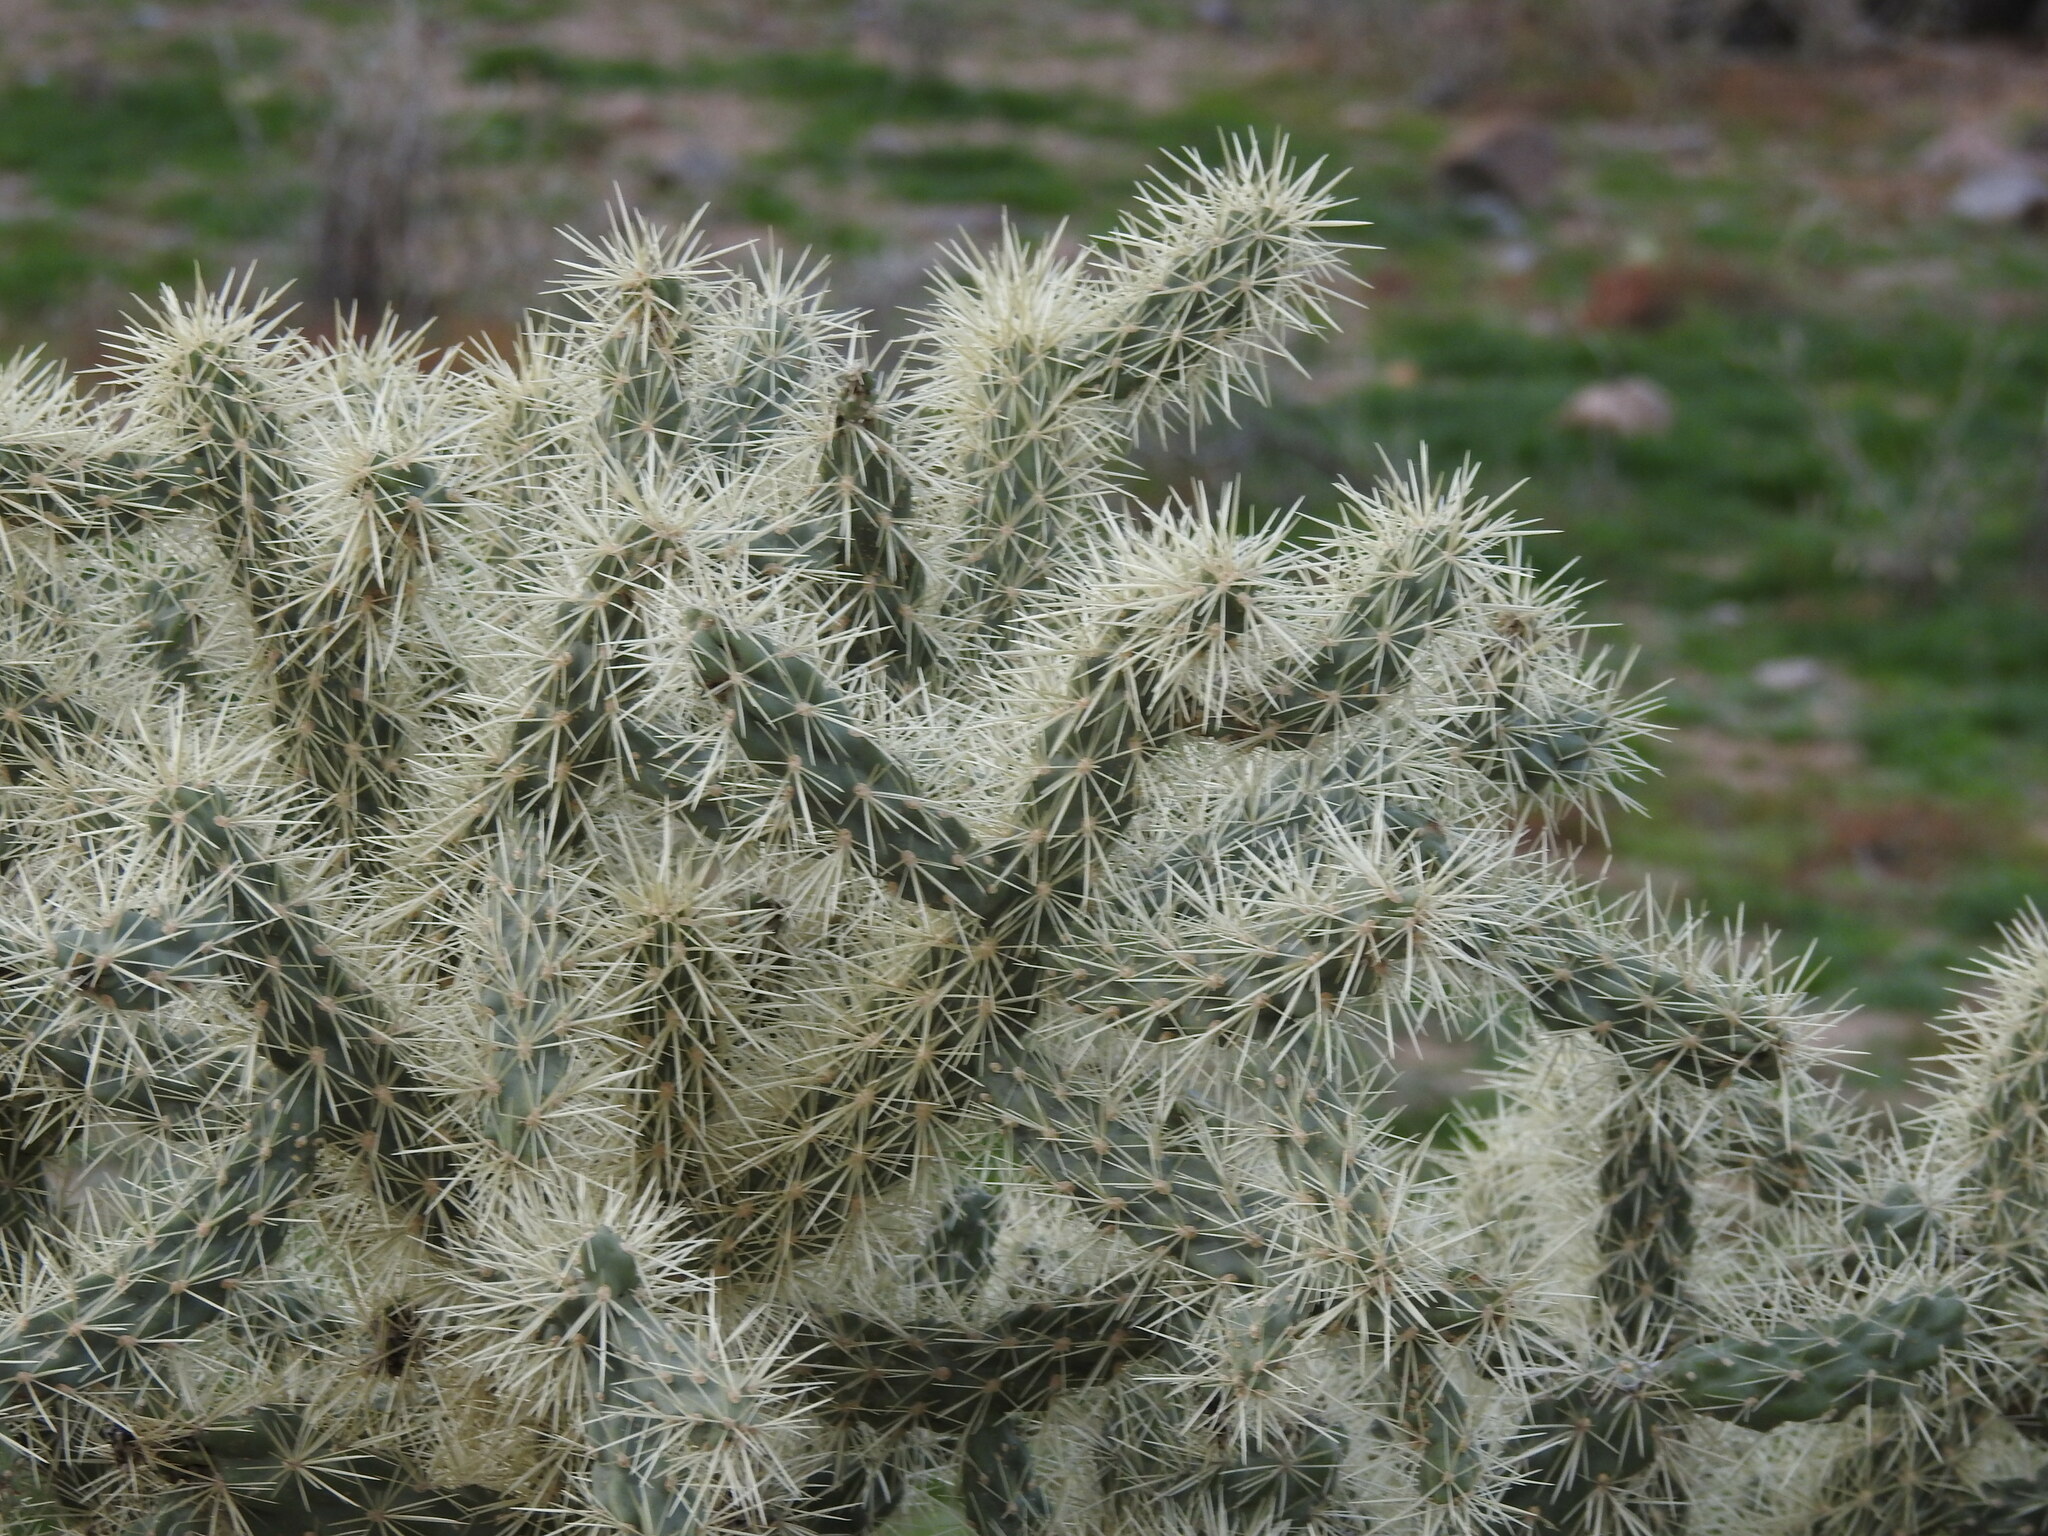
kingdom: Plantae
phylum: Tracheophyta
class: Magnoliopsida
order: Caryophyllales
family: Cactaceae
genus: Cylindropuntia
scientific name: Cylindropuntia fulgida
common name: Jumping cholla
